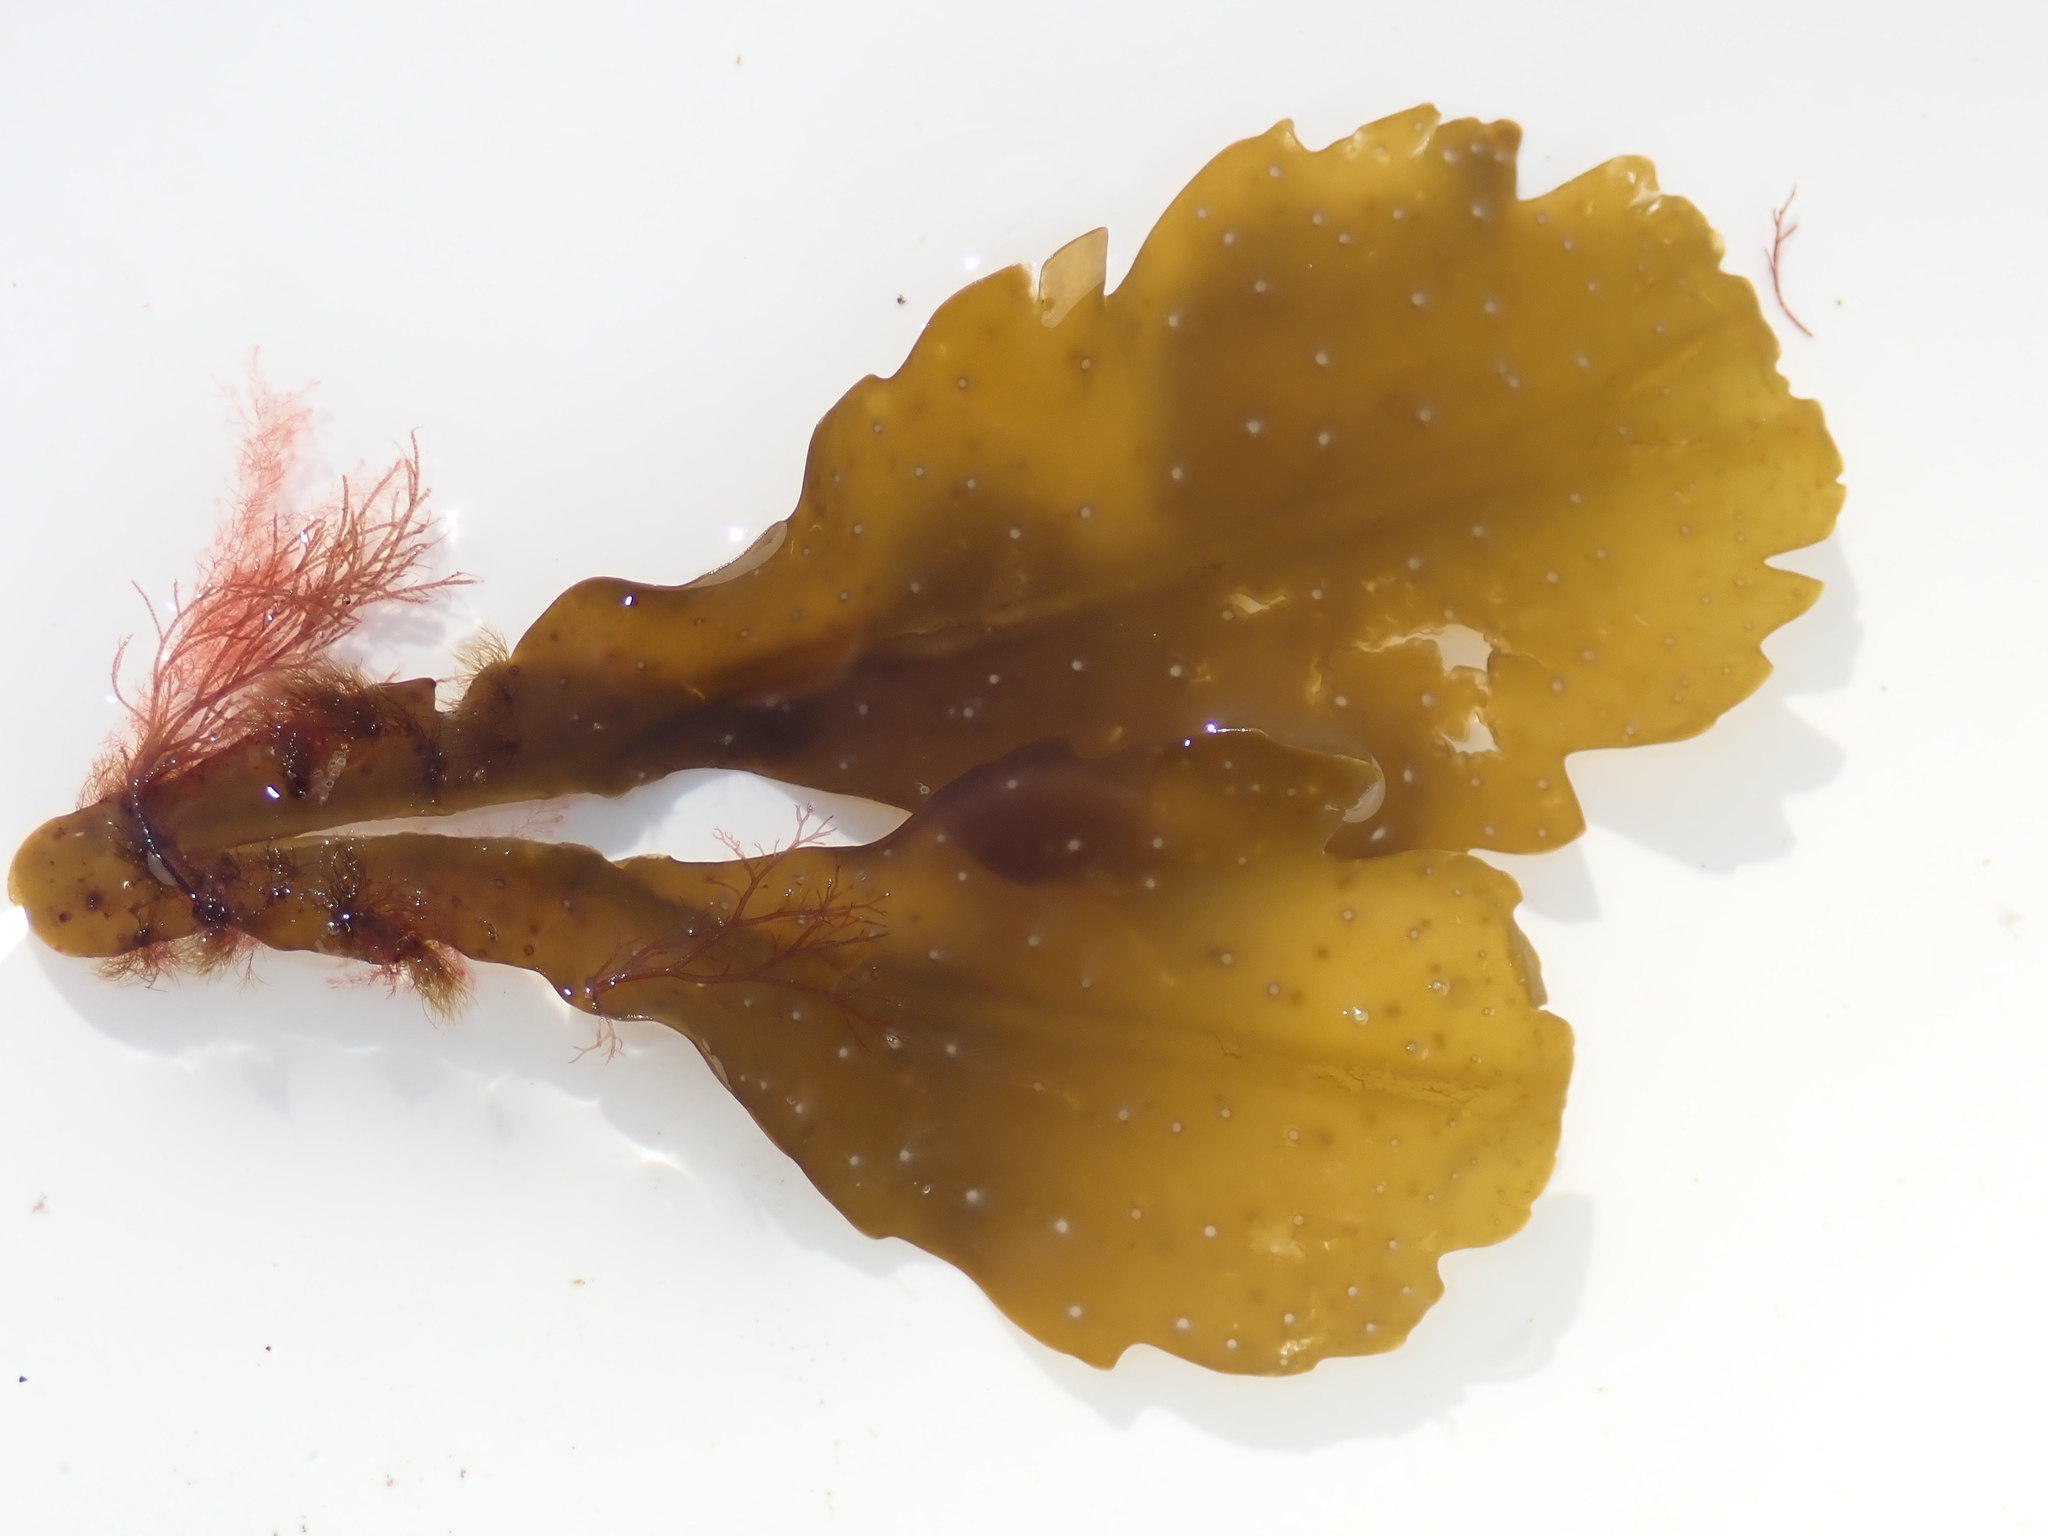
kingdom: Chromista
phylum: Ochrophyta
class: Phaeophyceae
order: Fucales
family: Fucaceae
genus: Fucus
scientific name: Fucus serratus
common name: Toothed wrack
